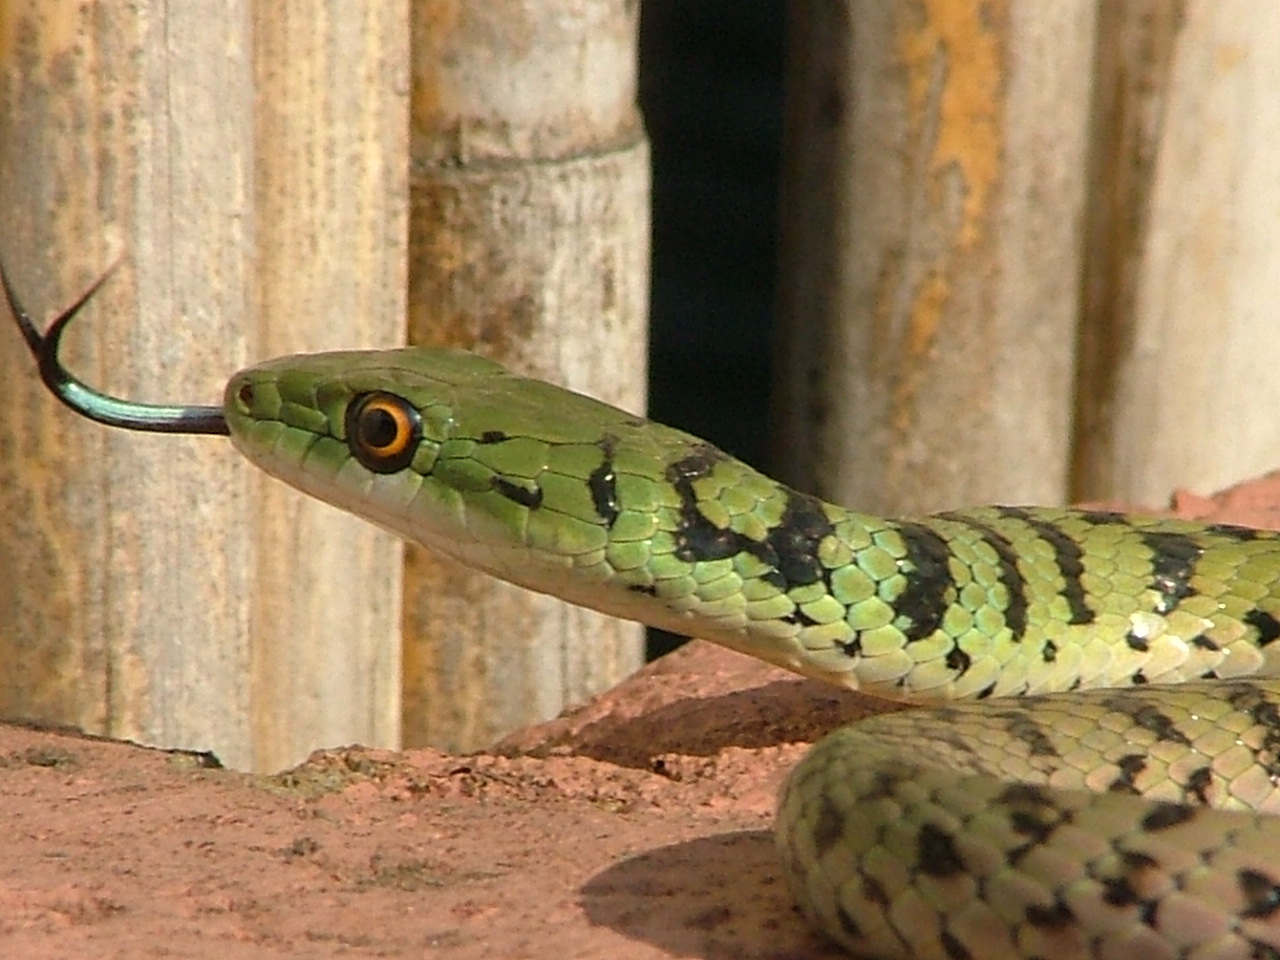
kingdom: Animalia
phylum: Chordata
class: Squamata
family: Colubridae
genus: Philothamnus
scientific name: Philothamnus semivariegatus
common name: Spotted bush snake
